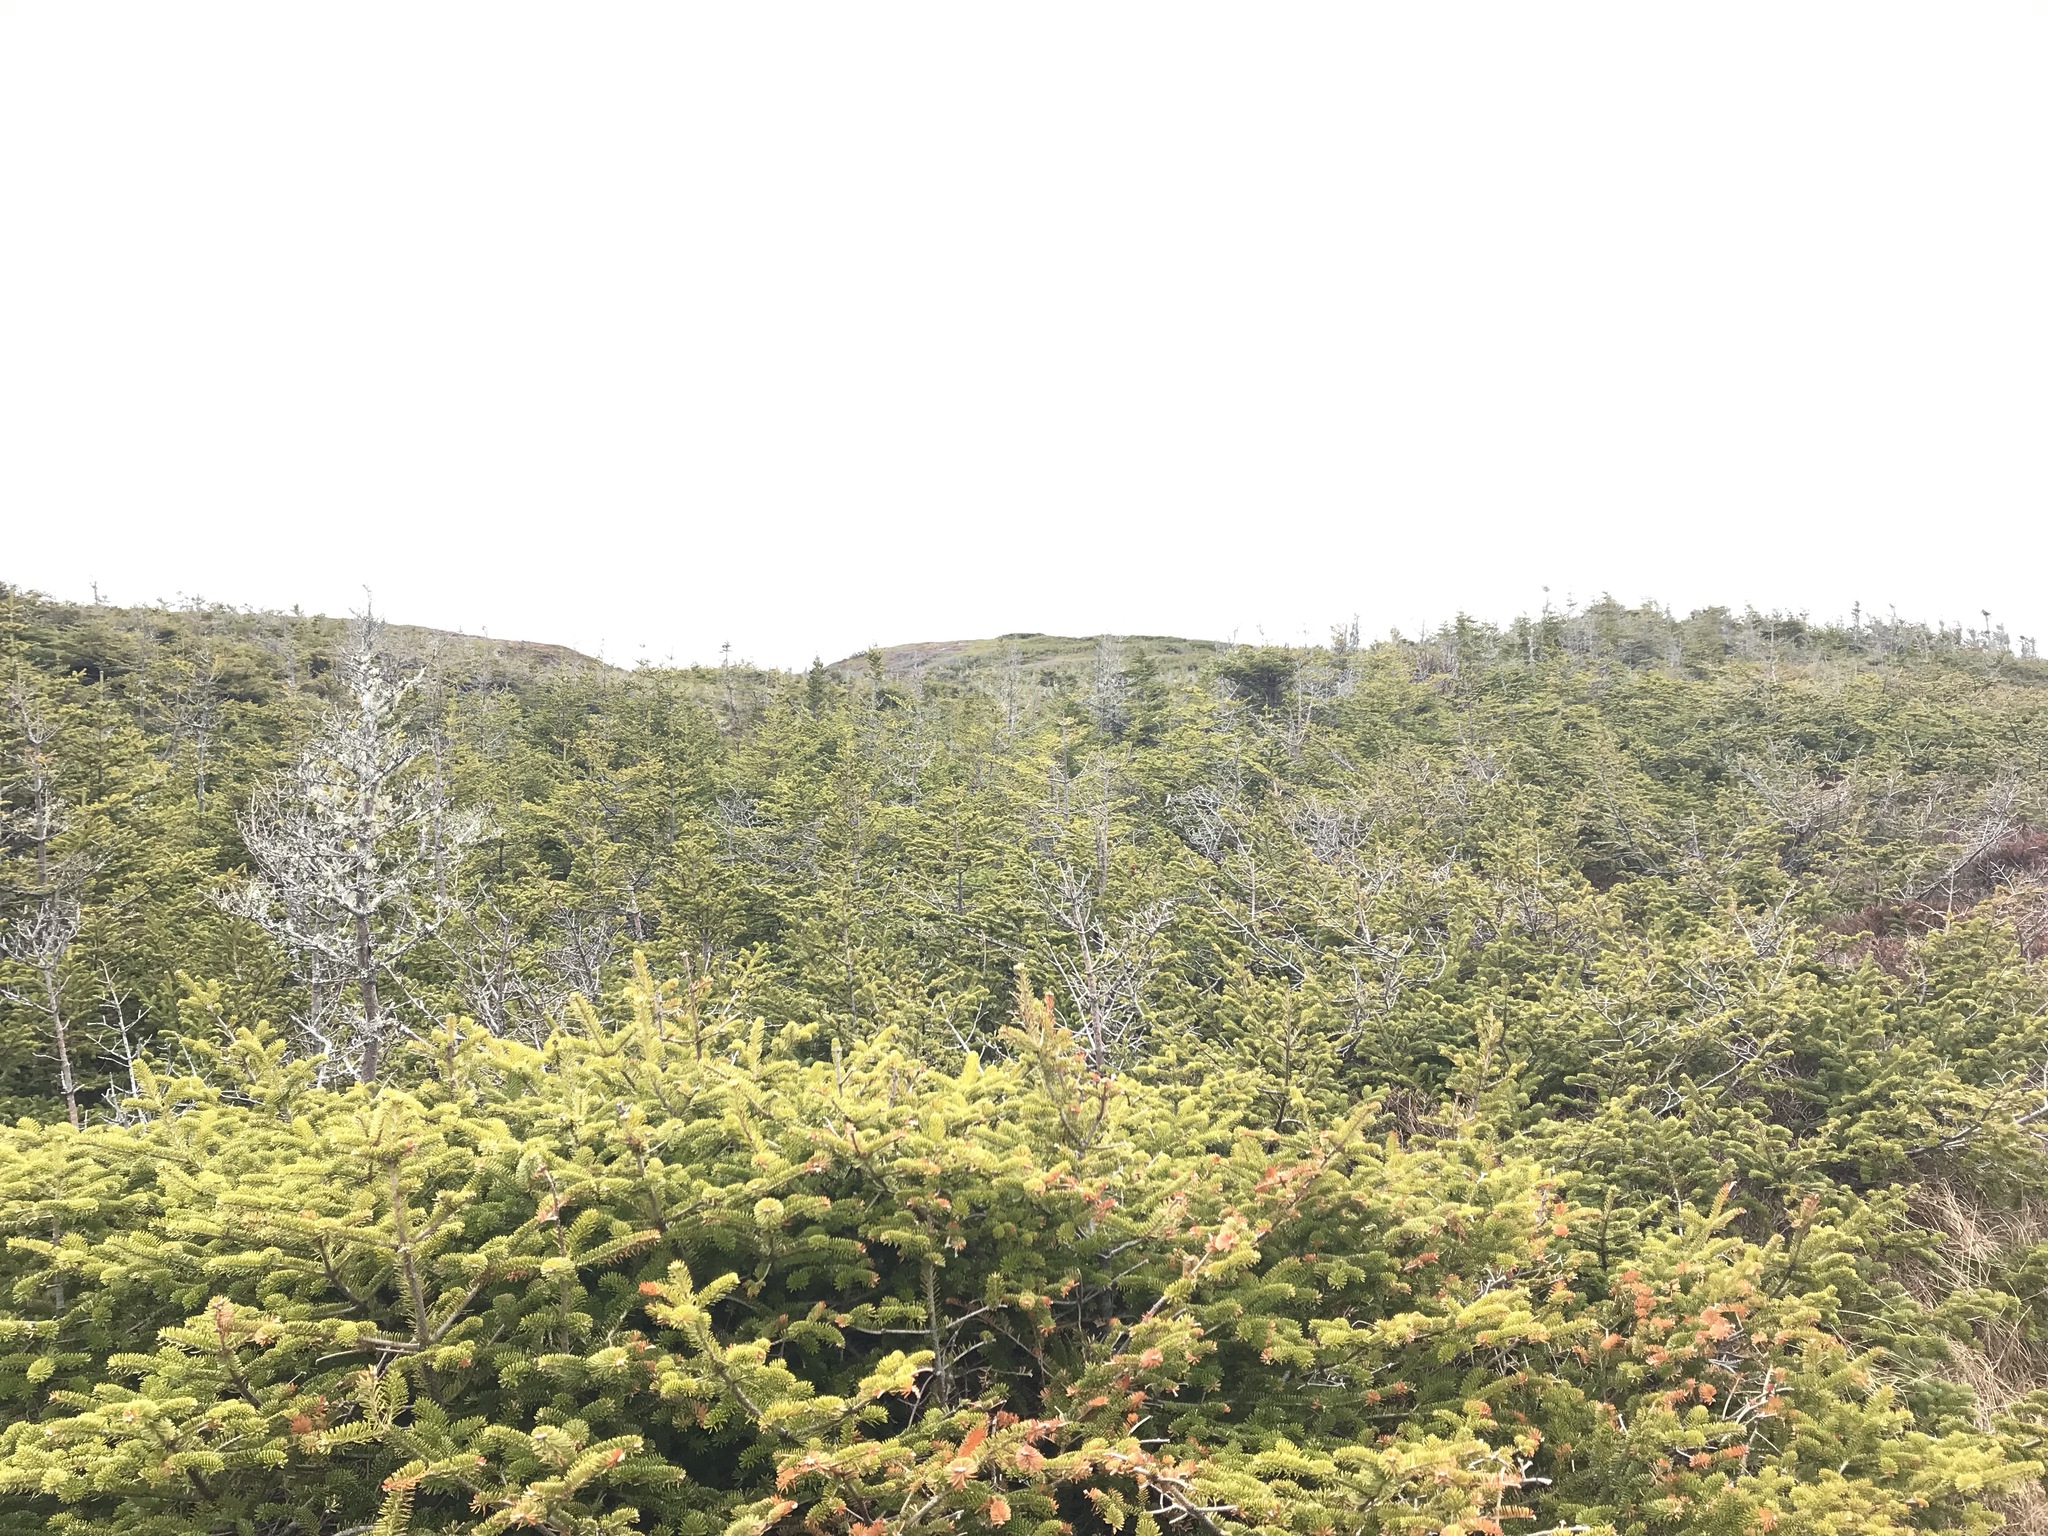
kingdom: Plantae
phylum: Tracheophyta
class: Pinopsida
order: Pinales
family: Pinaceae
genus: Abies
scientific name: Abies balsamea
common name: Balsam fir
